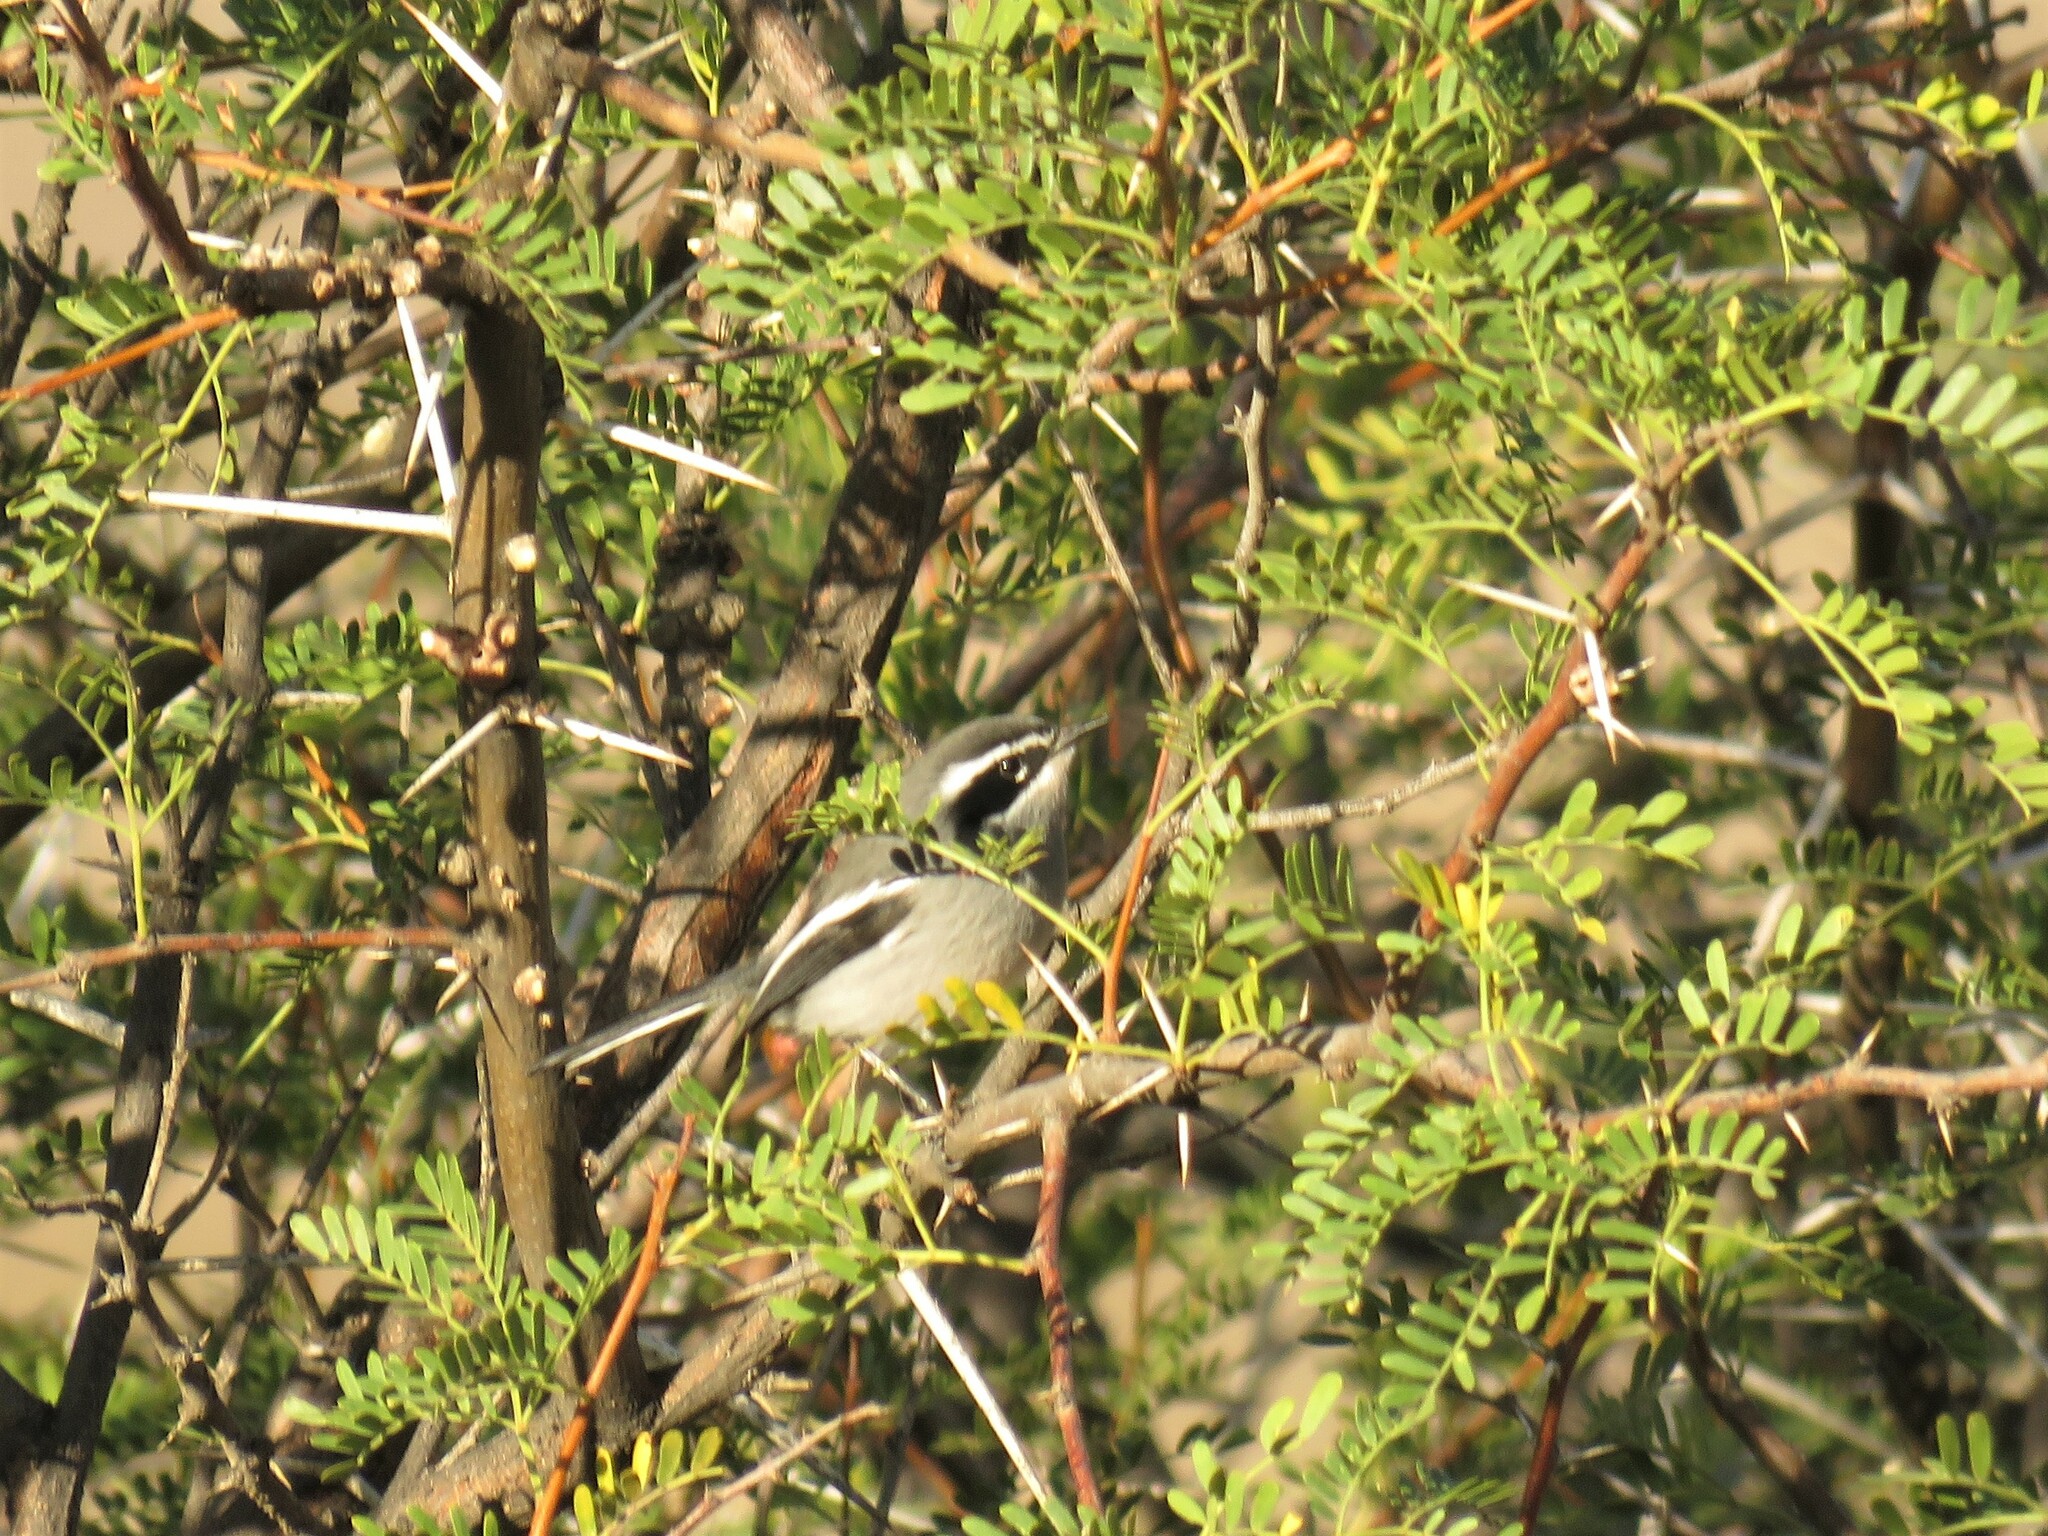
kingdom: Animalia
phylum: Chordata
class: Aves
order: Passeriformes
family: Stenostiridae
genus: Stenostira
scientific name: Stenostira scita
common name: Fairy flycatcher
